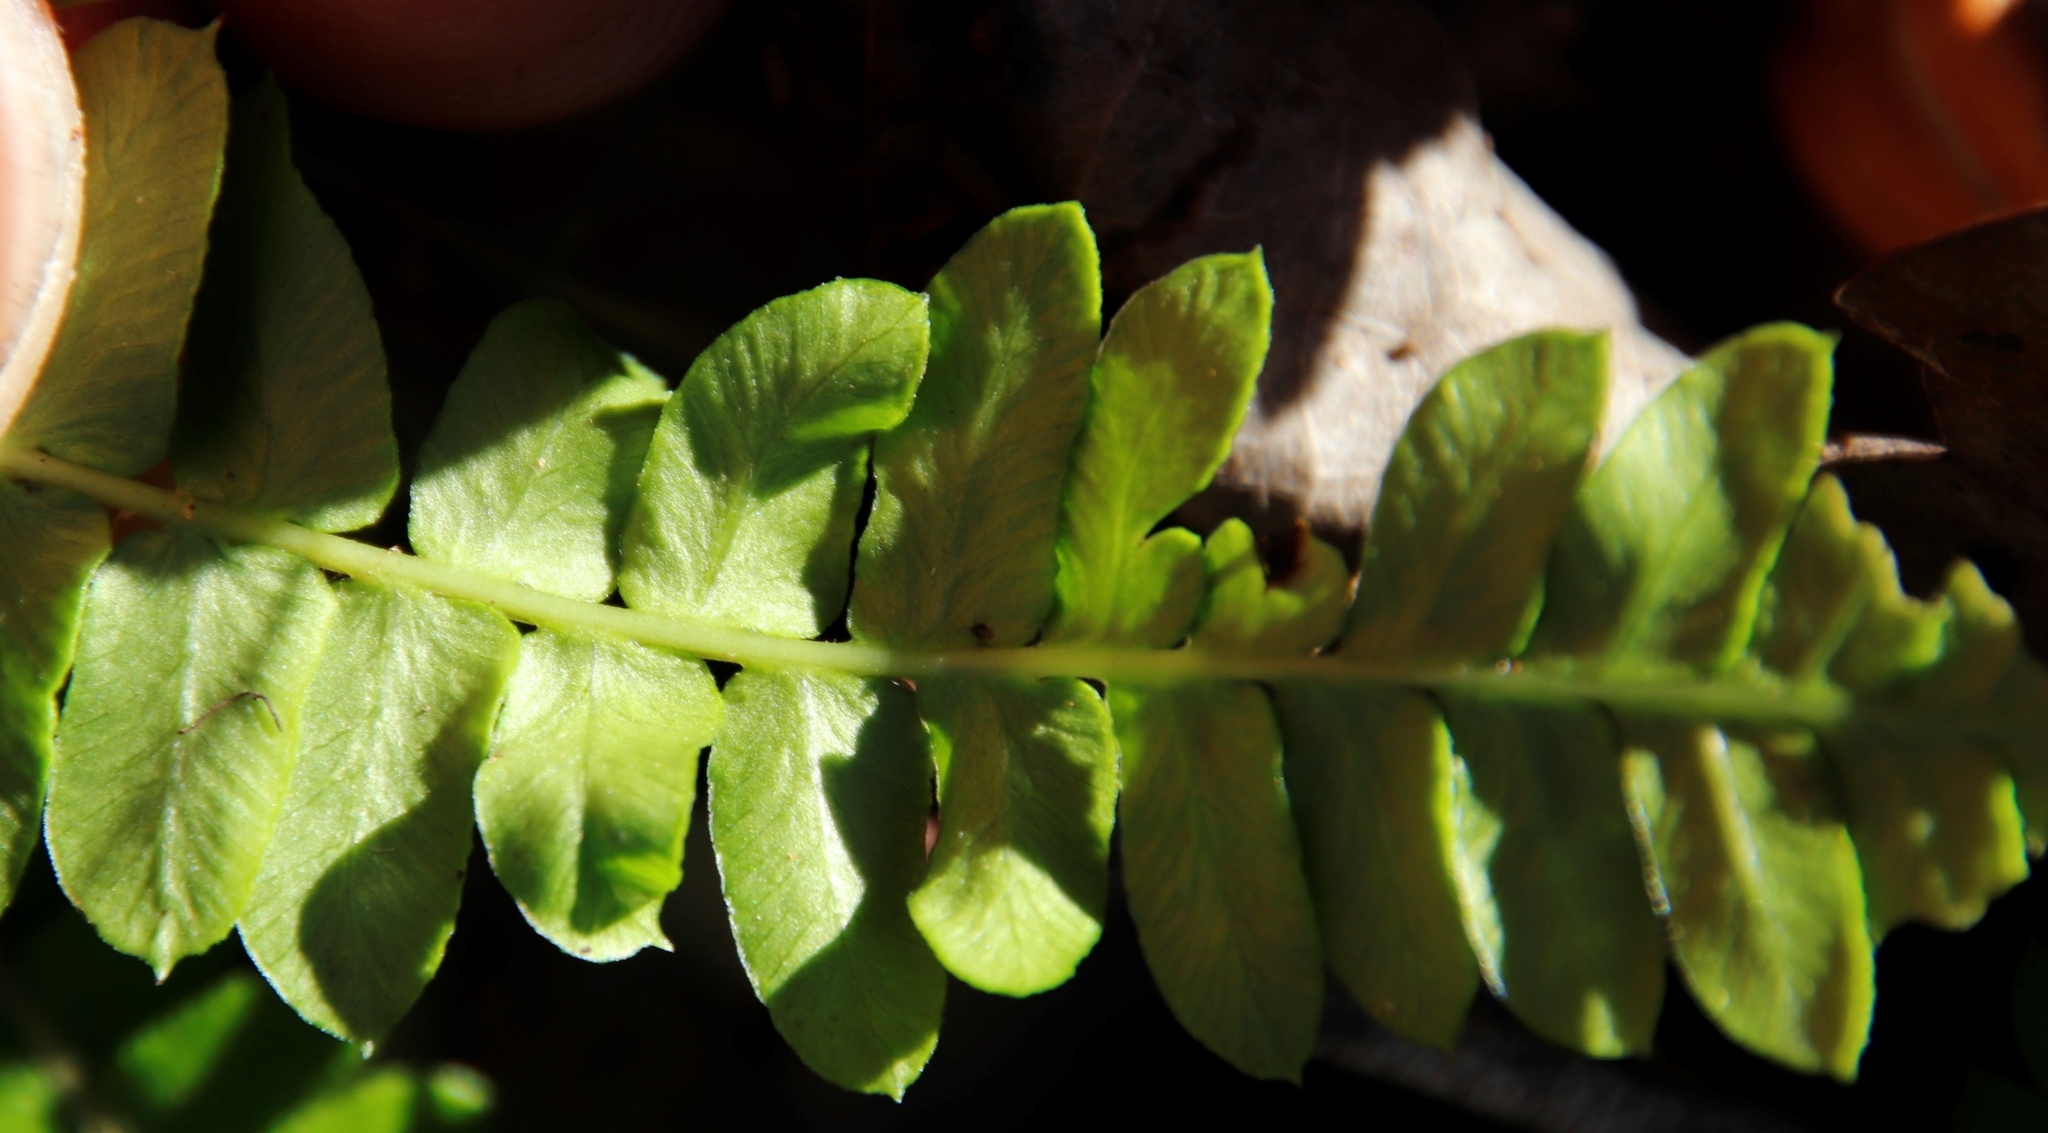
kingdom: Plantae
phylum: Tracheophyta
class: Polypodiopsida
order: Polypodiales
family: Blechnaceae
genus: Blechnum
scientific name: Blechnum australe
